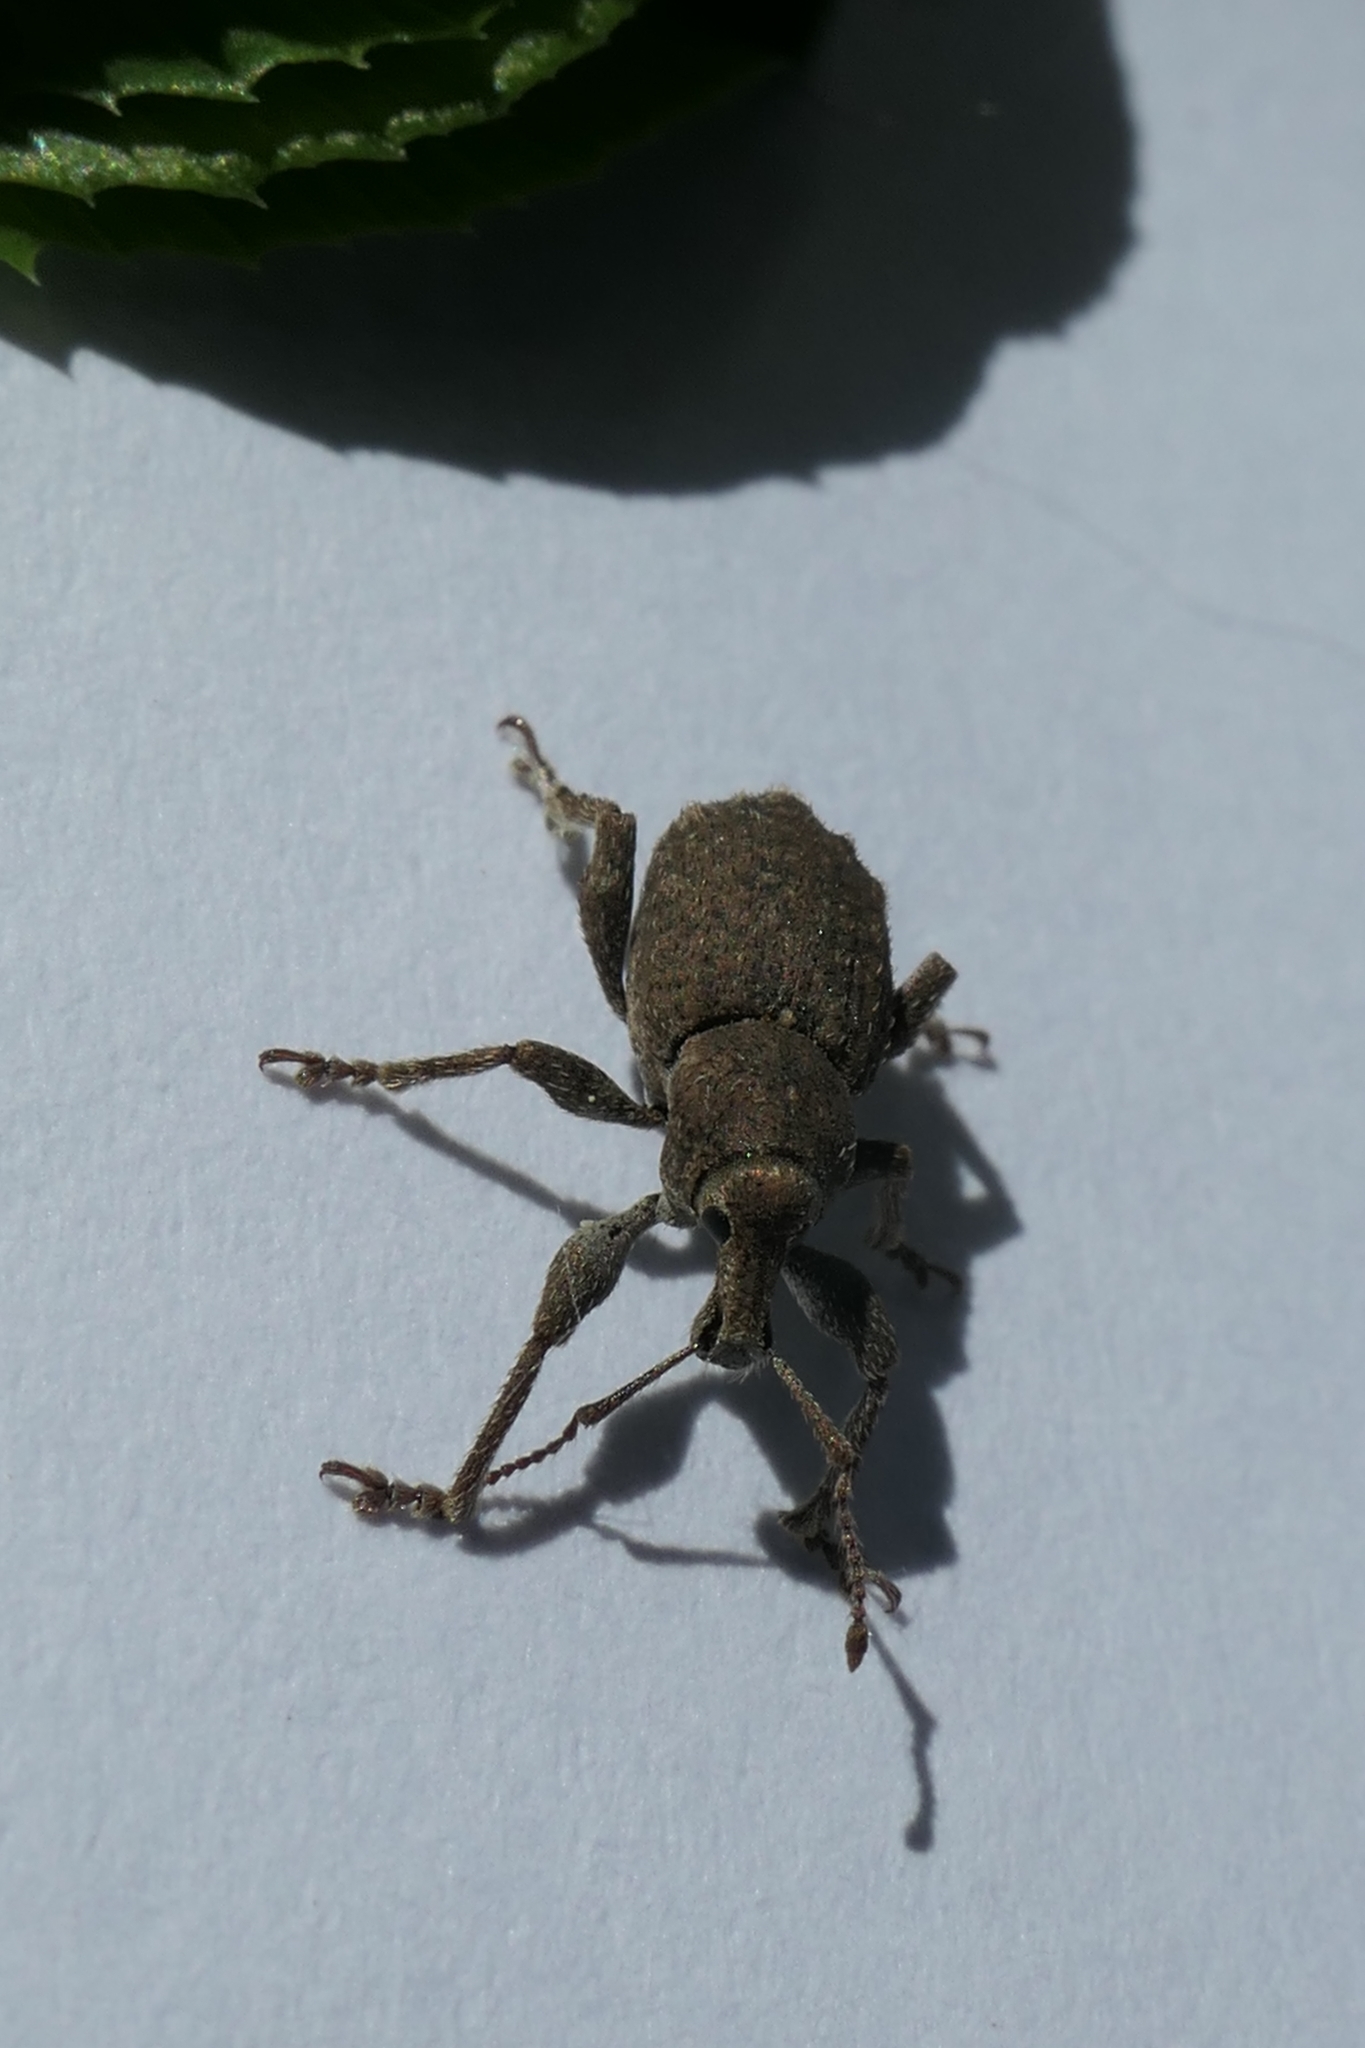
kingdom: Animalia
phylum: Arthropoda
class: Insecta
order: Coleoptera
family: Curculionidae
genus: Irenimus
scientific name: Irenimus parilis
